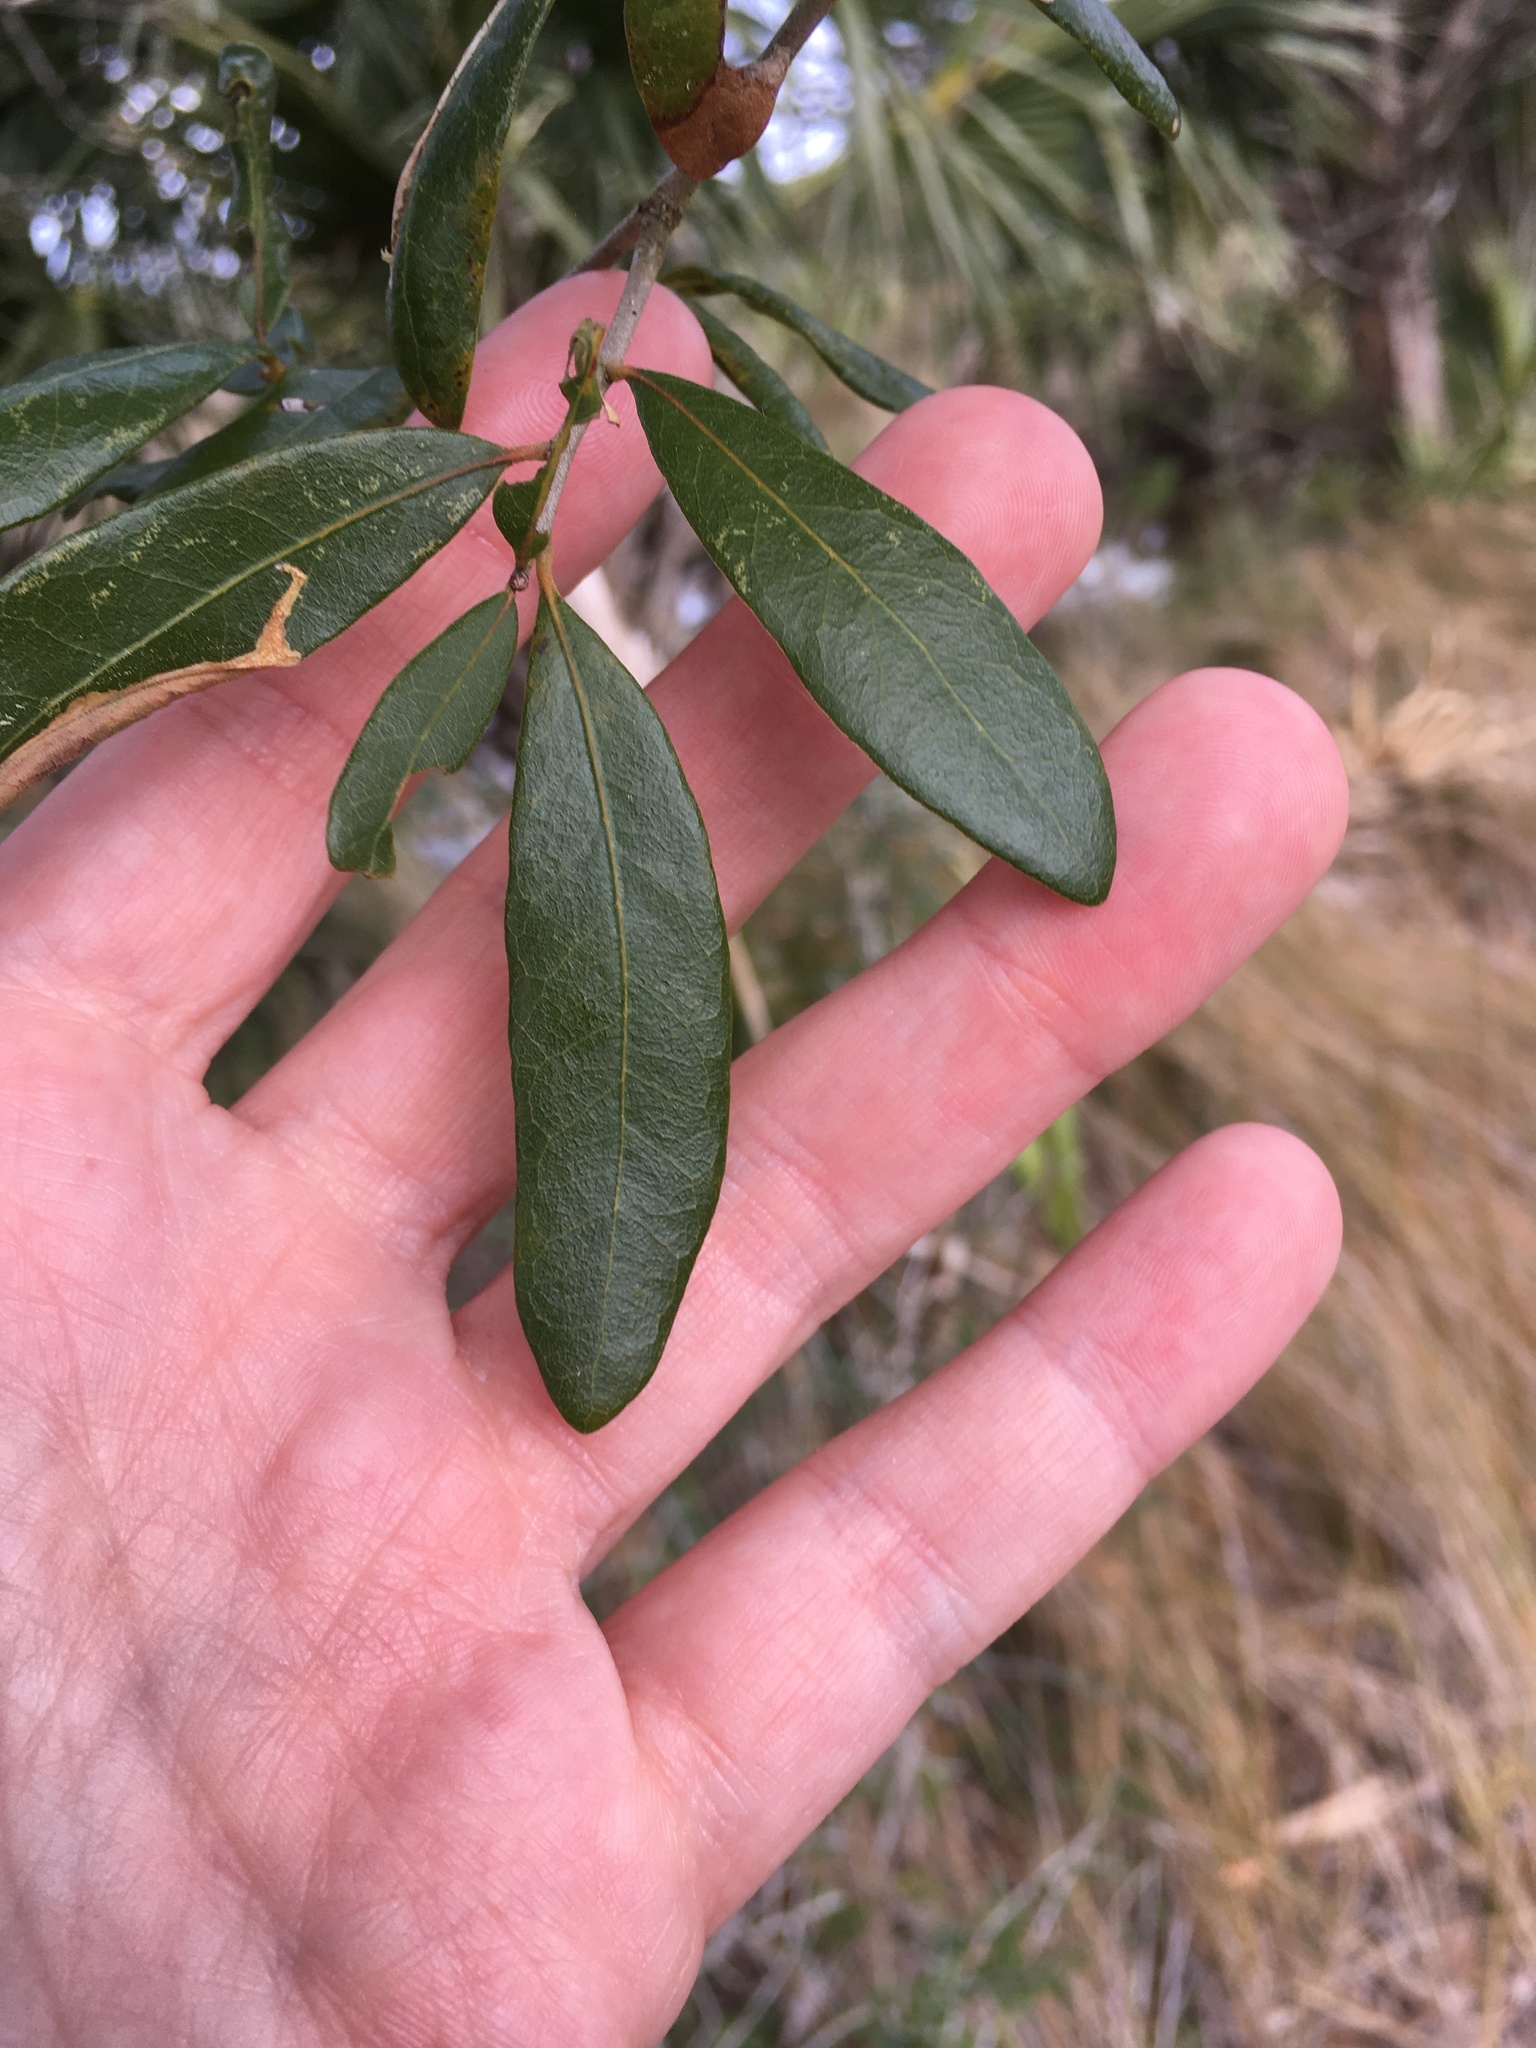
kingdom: Plantae
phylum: Tracheophyta
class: Magnoliopsida
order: Fagales
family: Fagaceae
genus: Quercus
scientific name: Quercus virginiana
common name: Southern live oak
